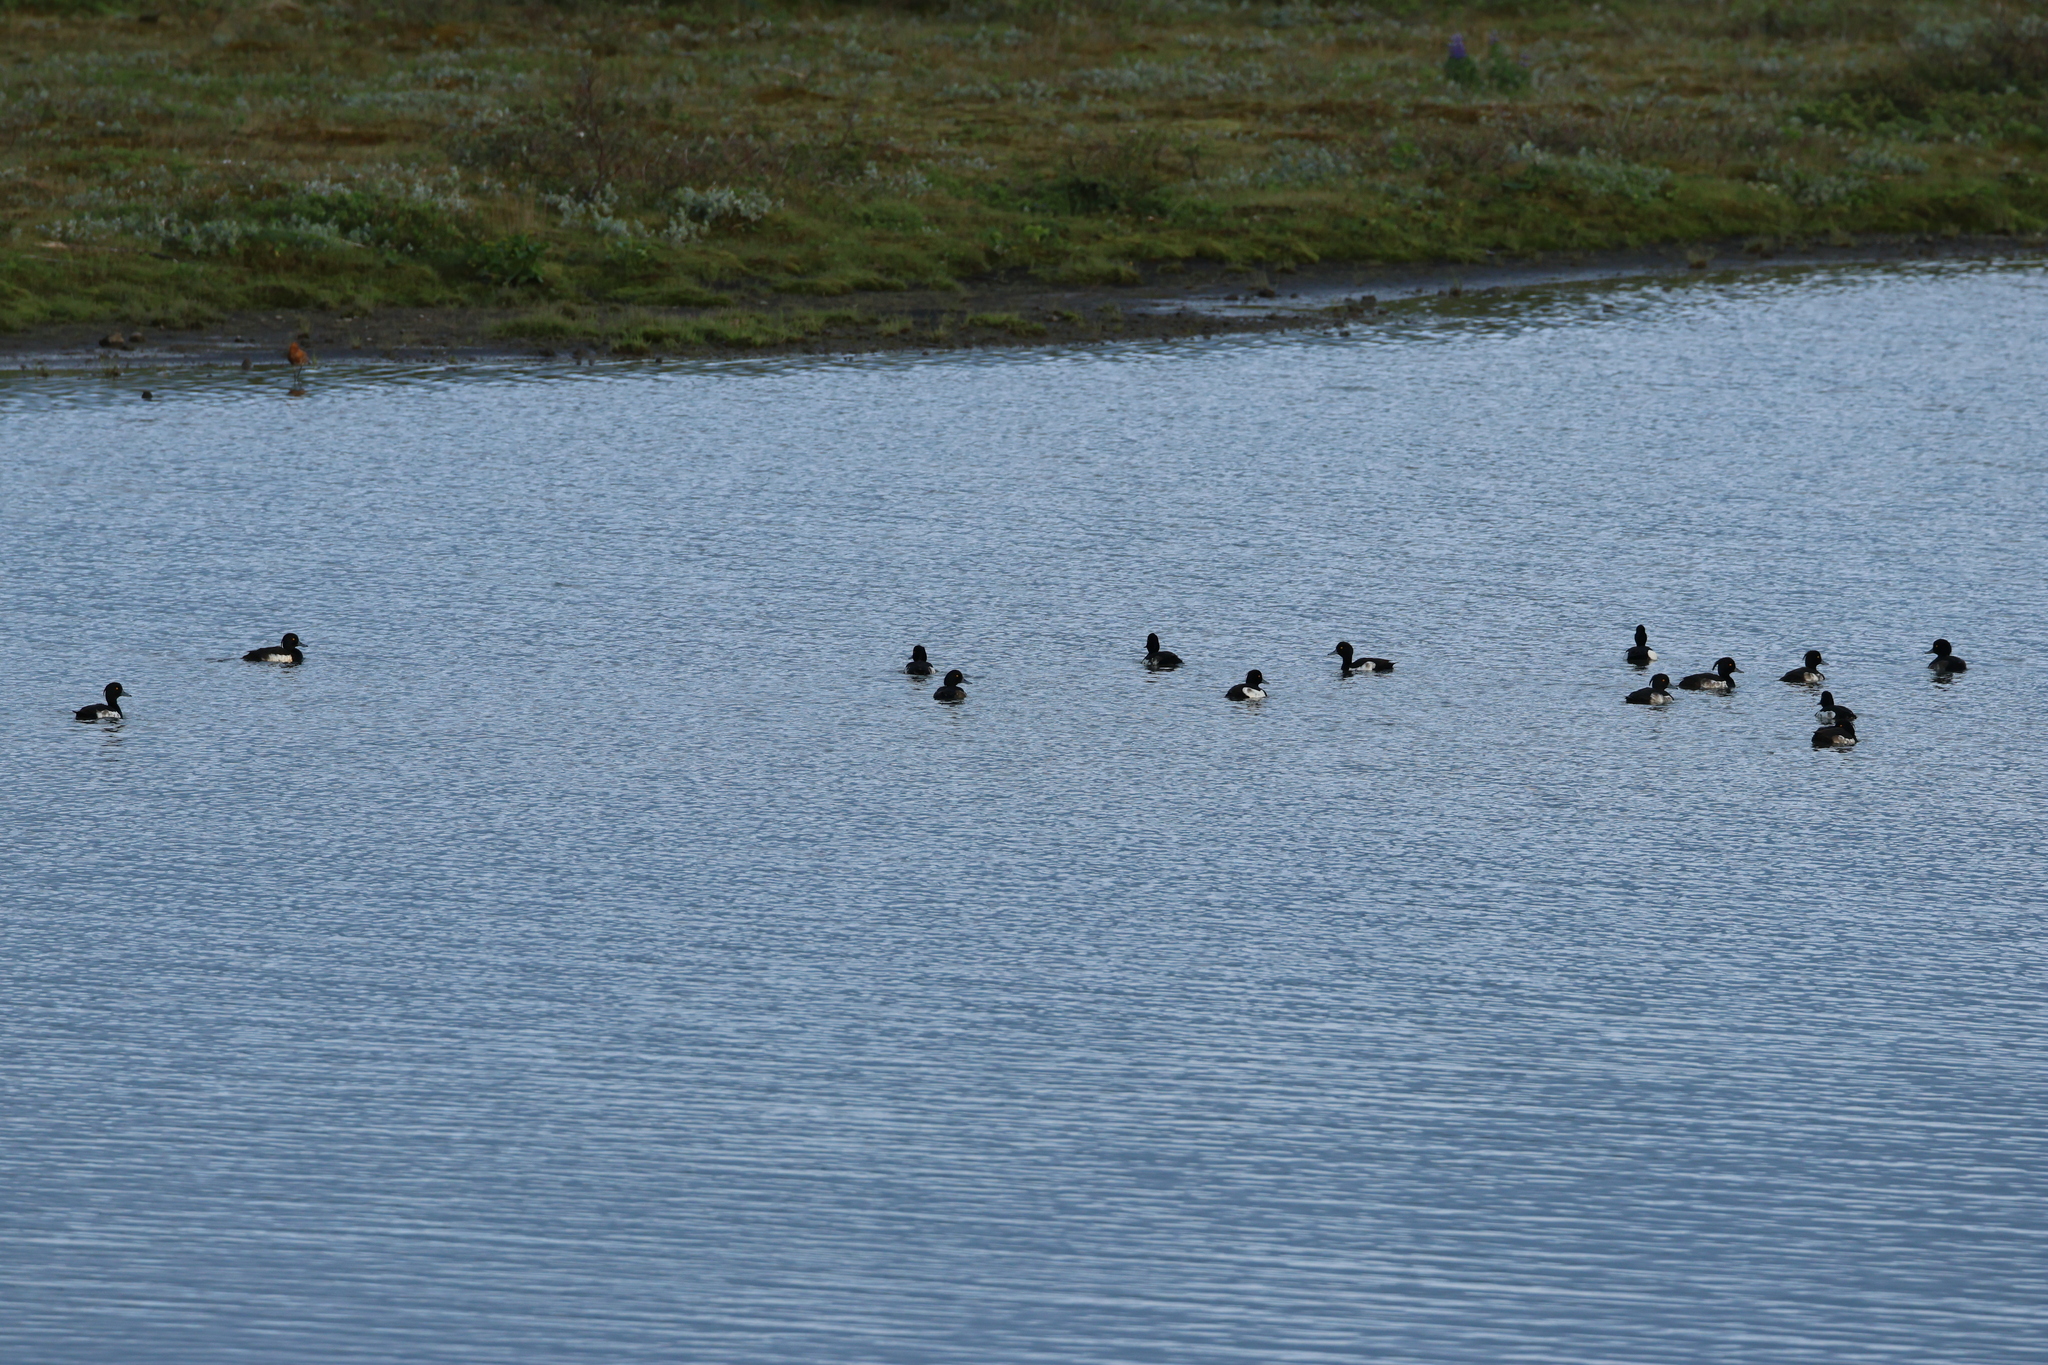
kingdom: Animalia
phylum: Chordata
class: Aves
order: Anseriformes
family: Anatidae
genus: Aythya
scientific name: Aythya fuligula
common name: Tufted duck
